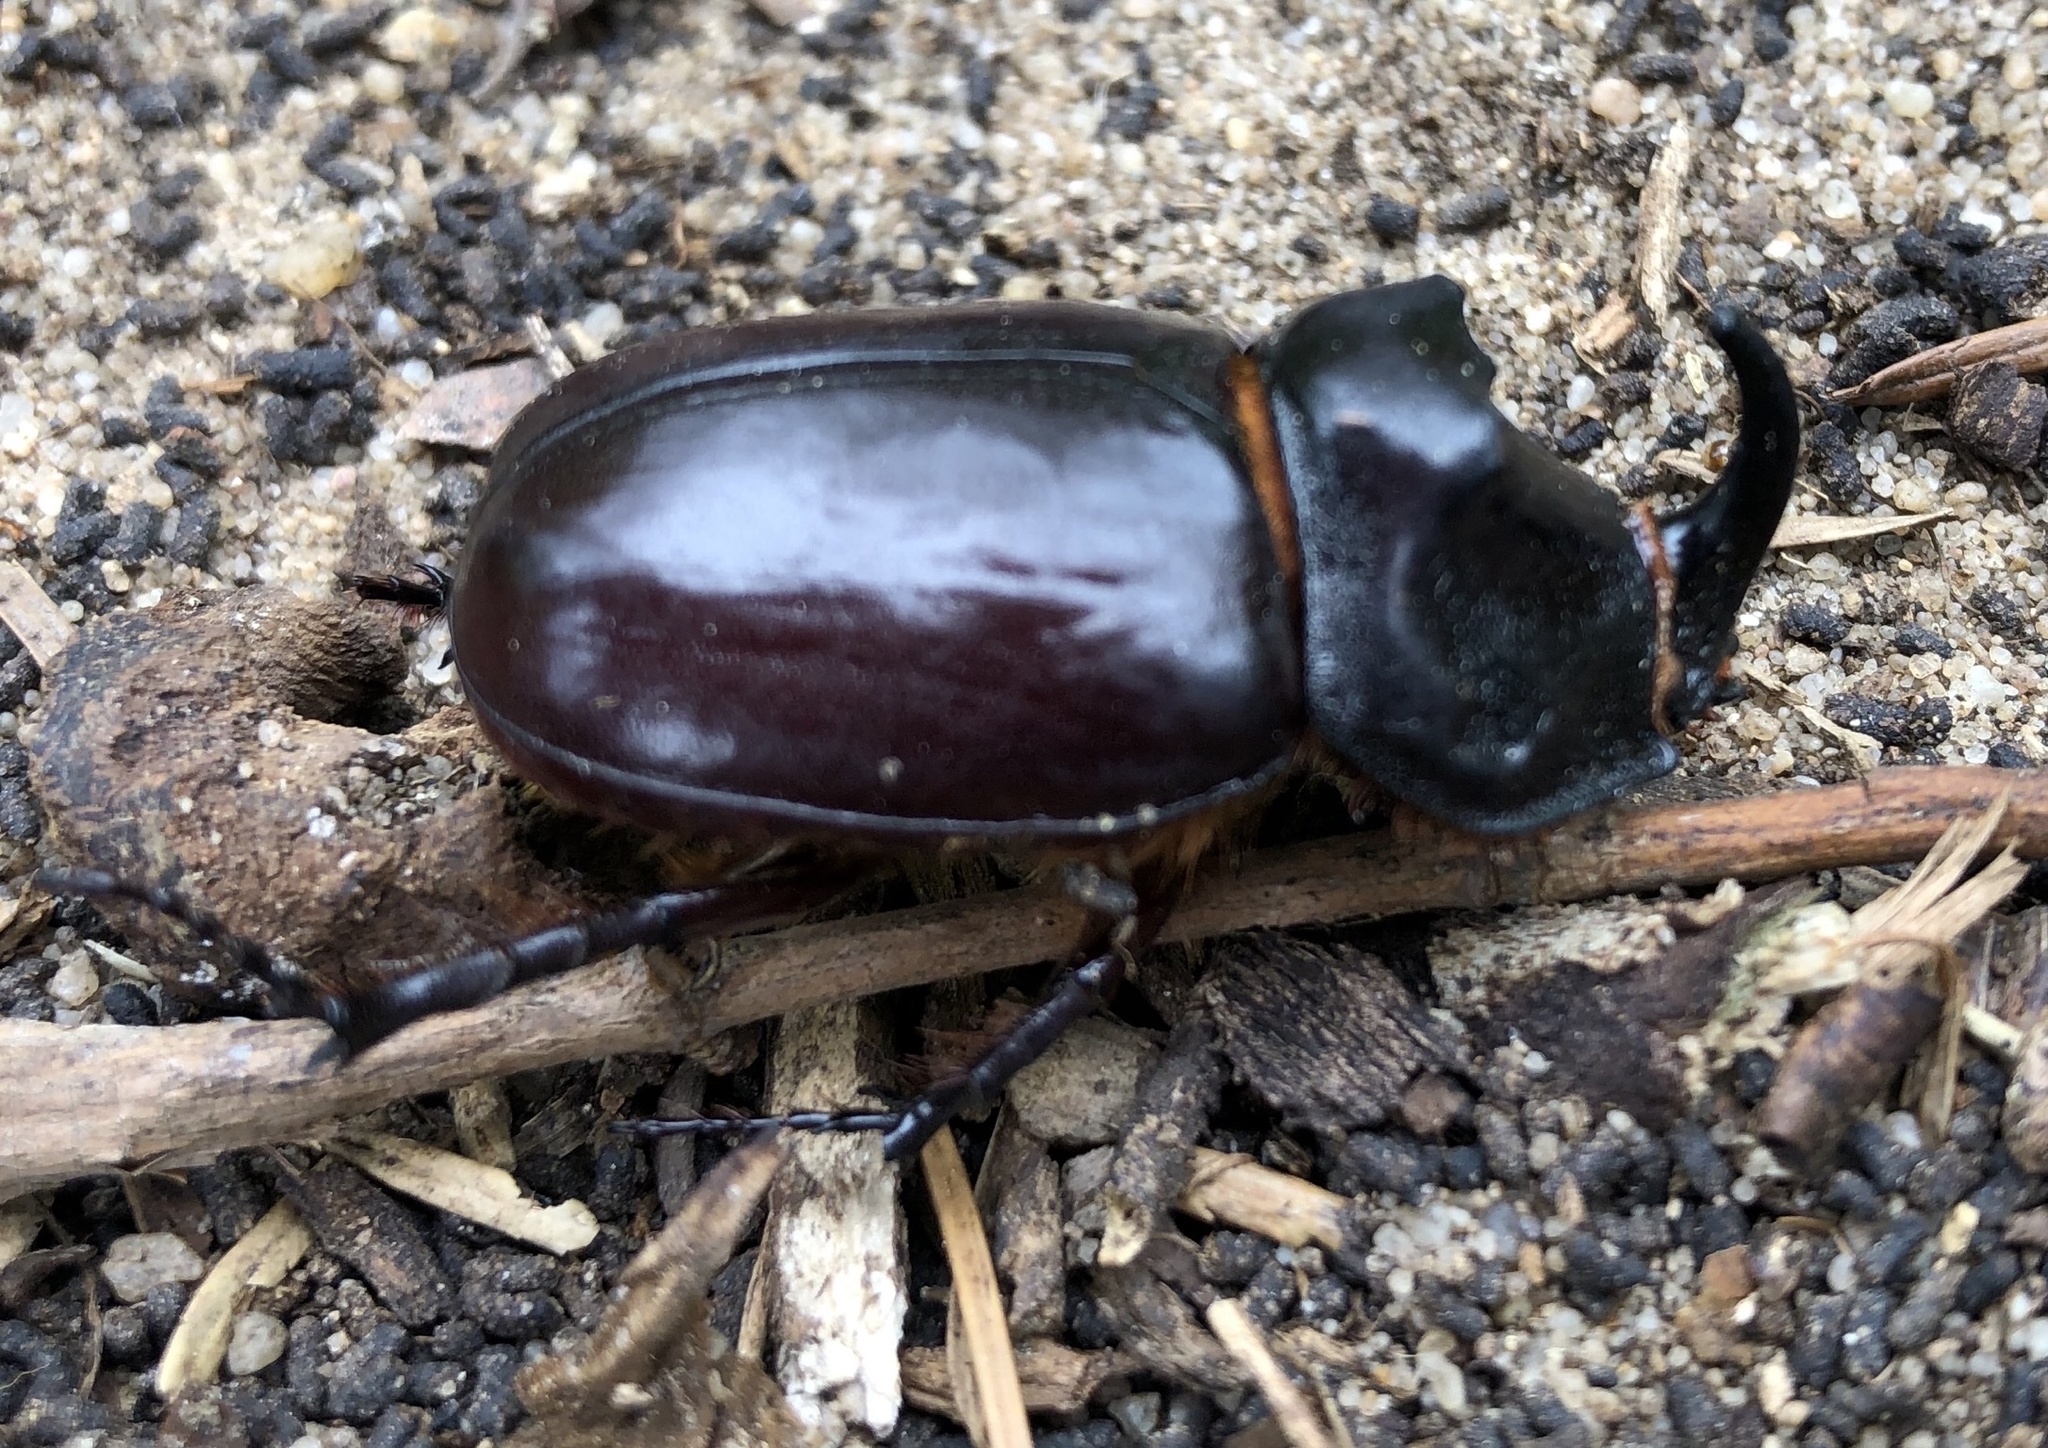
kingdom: Animalia
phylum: Arthropoda
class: Insecta
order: Coleoptera
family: Scarabaeidae
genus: Oryctes
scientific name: Oryctes nasicornis
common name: European rhinoceros beetle
